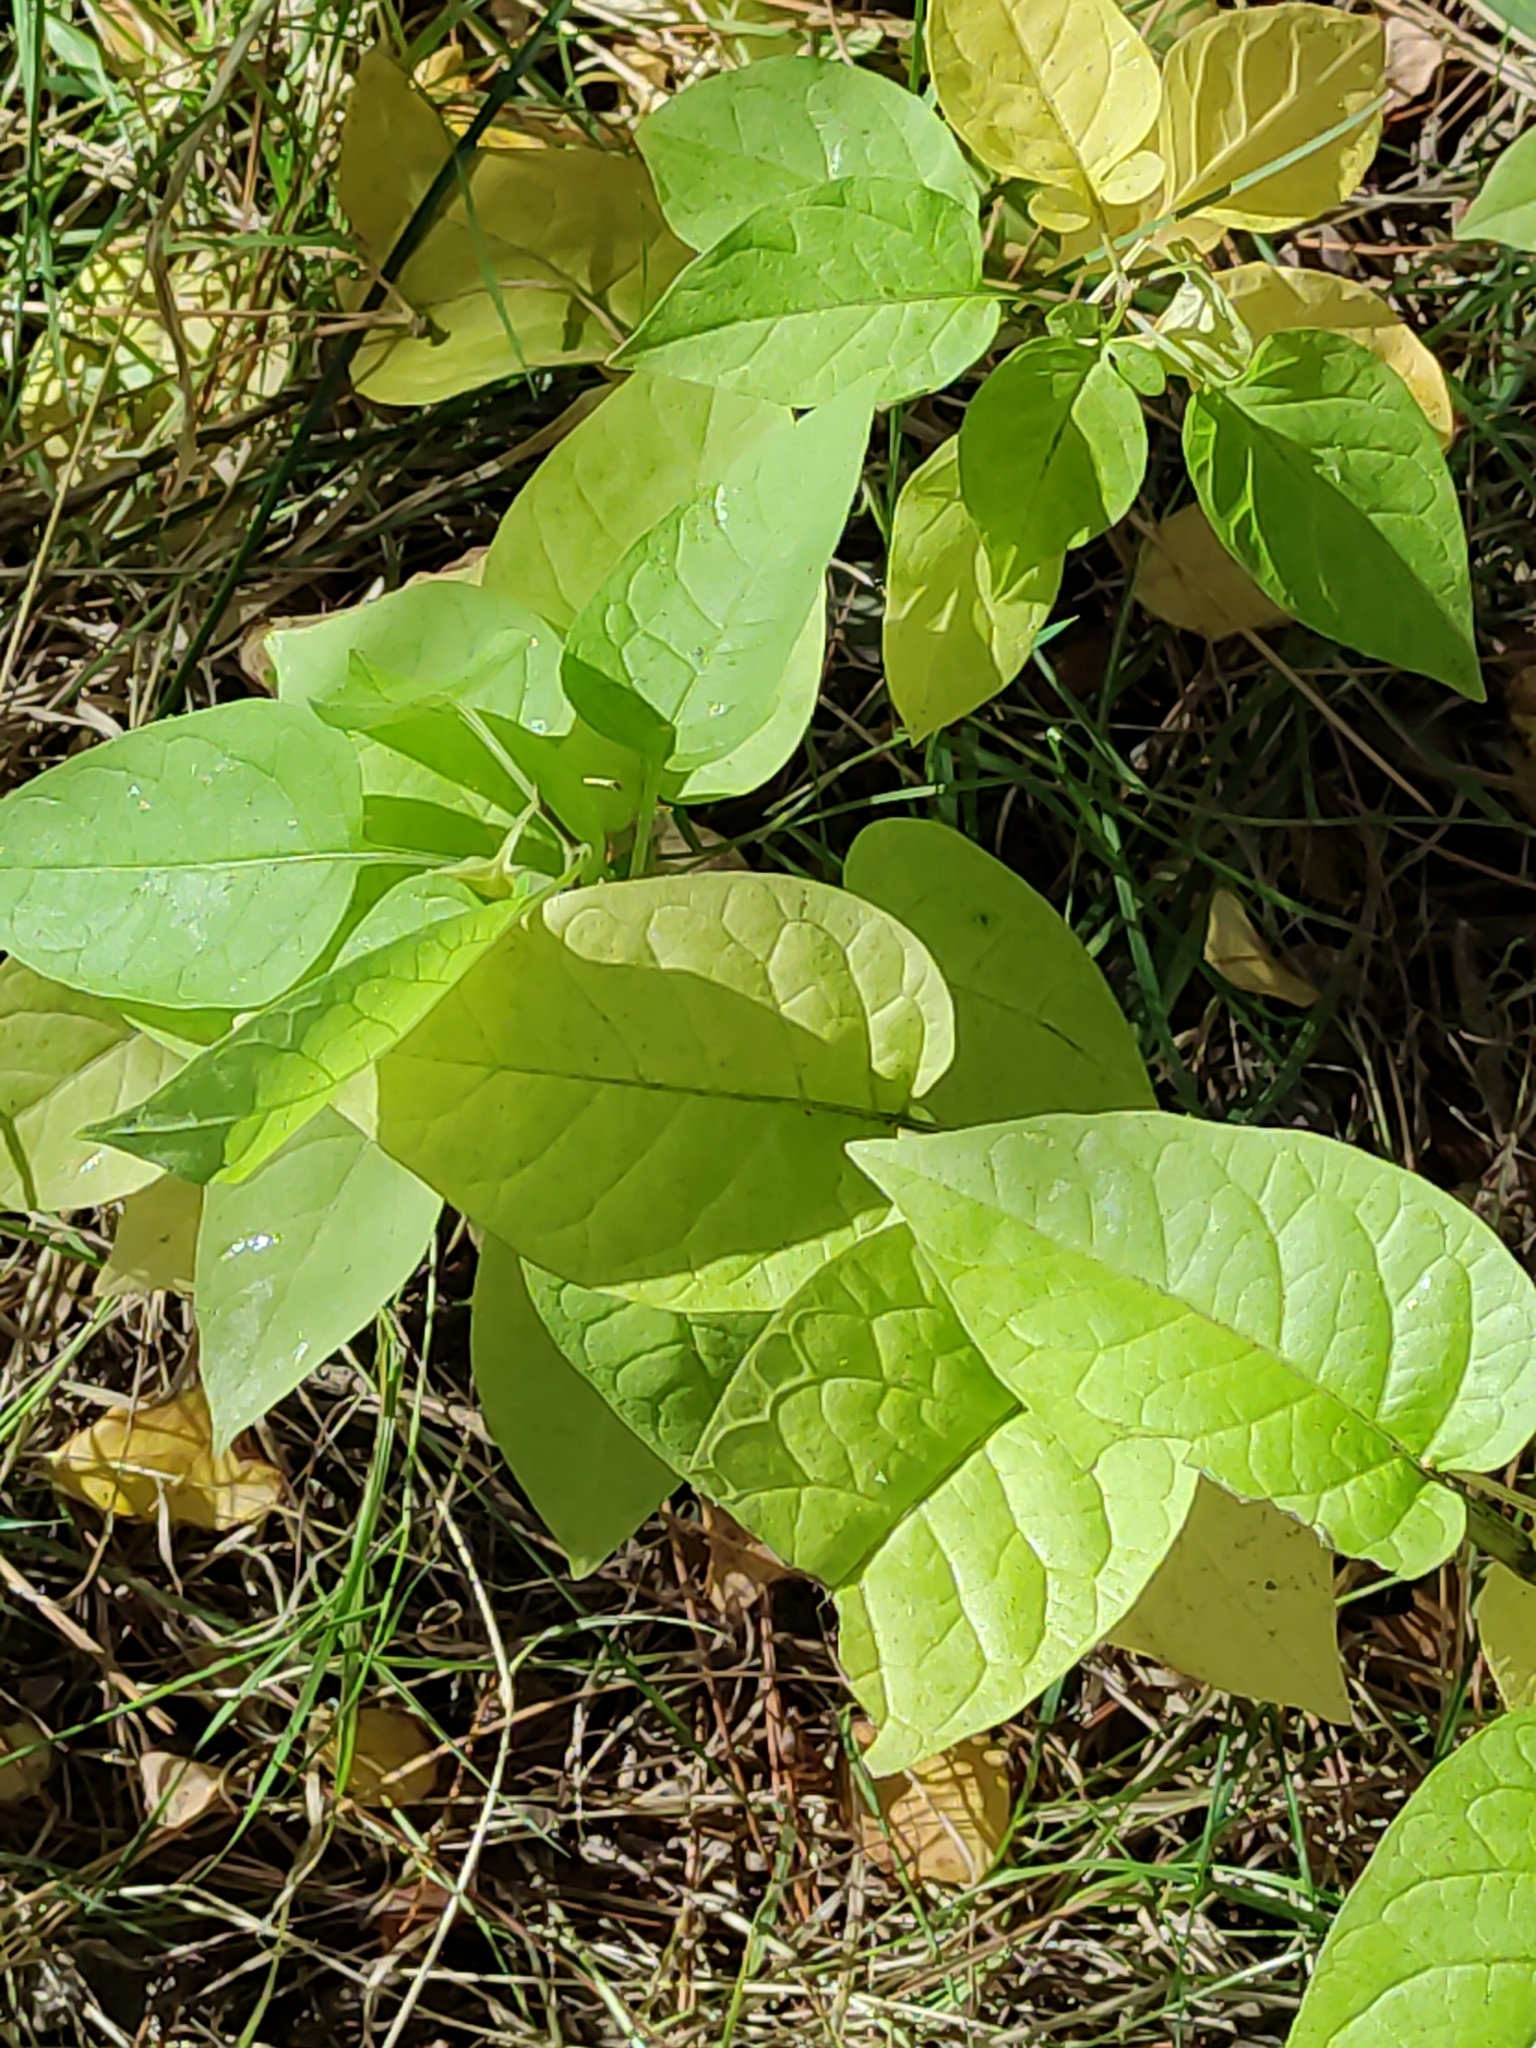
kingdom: Plantae
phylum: Tracheophyta
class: Magnoliopsida
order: Solanales
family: Solanaceae
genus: Solanum
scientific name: Solanum dulcamara
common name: Climbing nightshade
